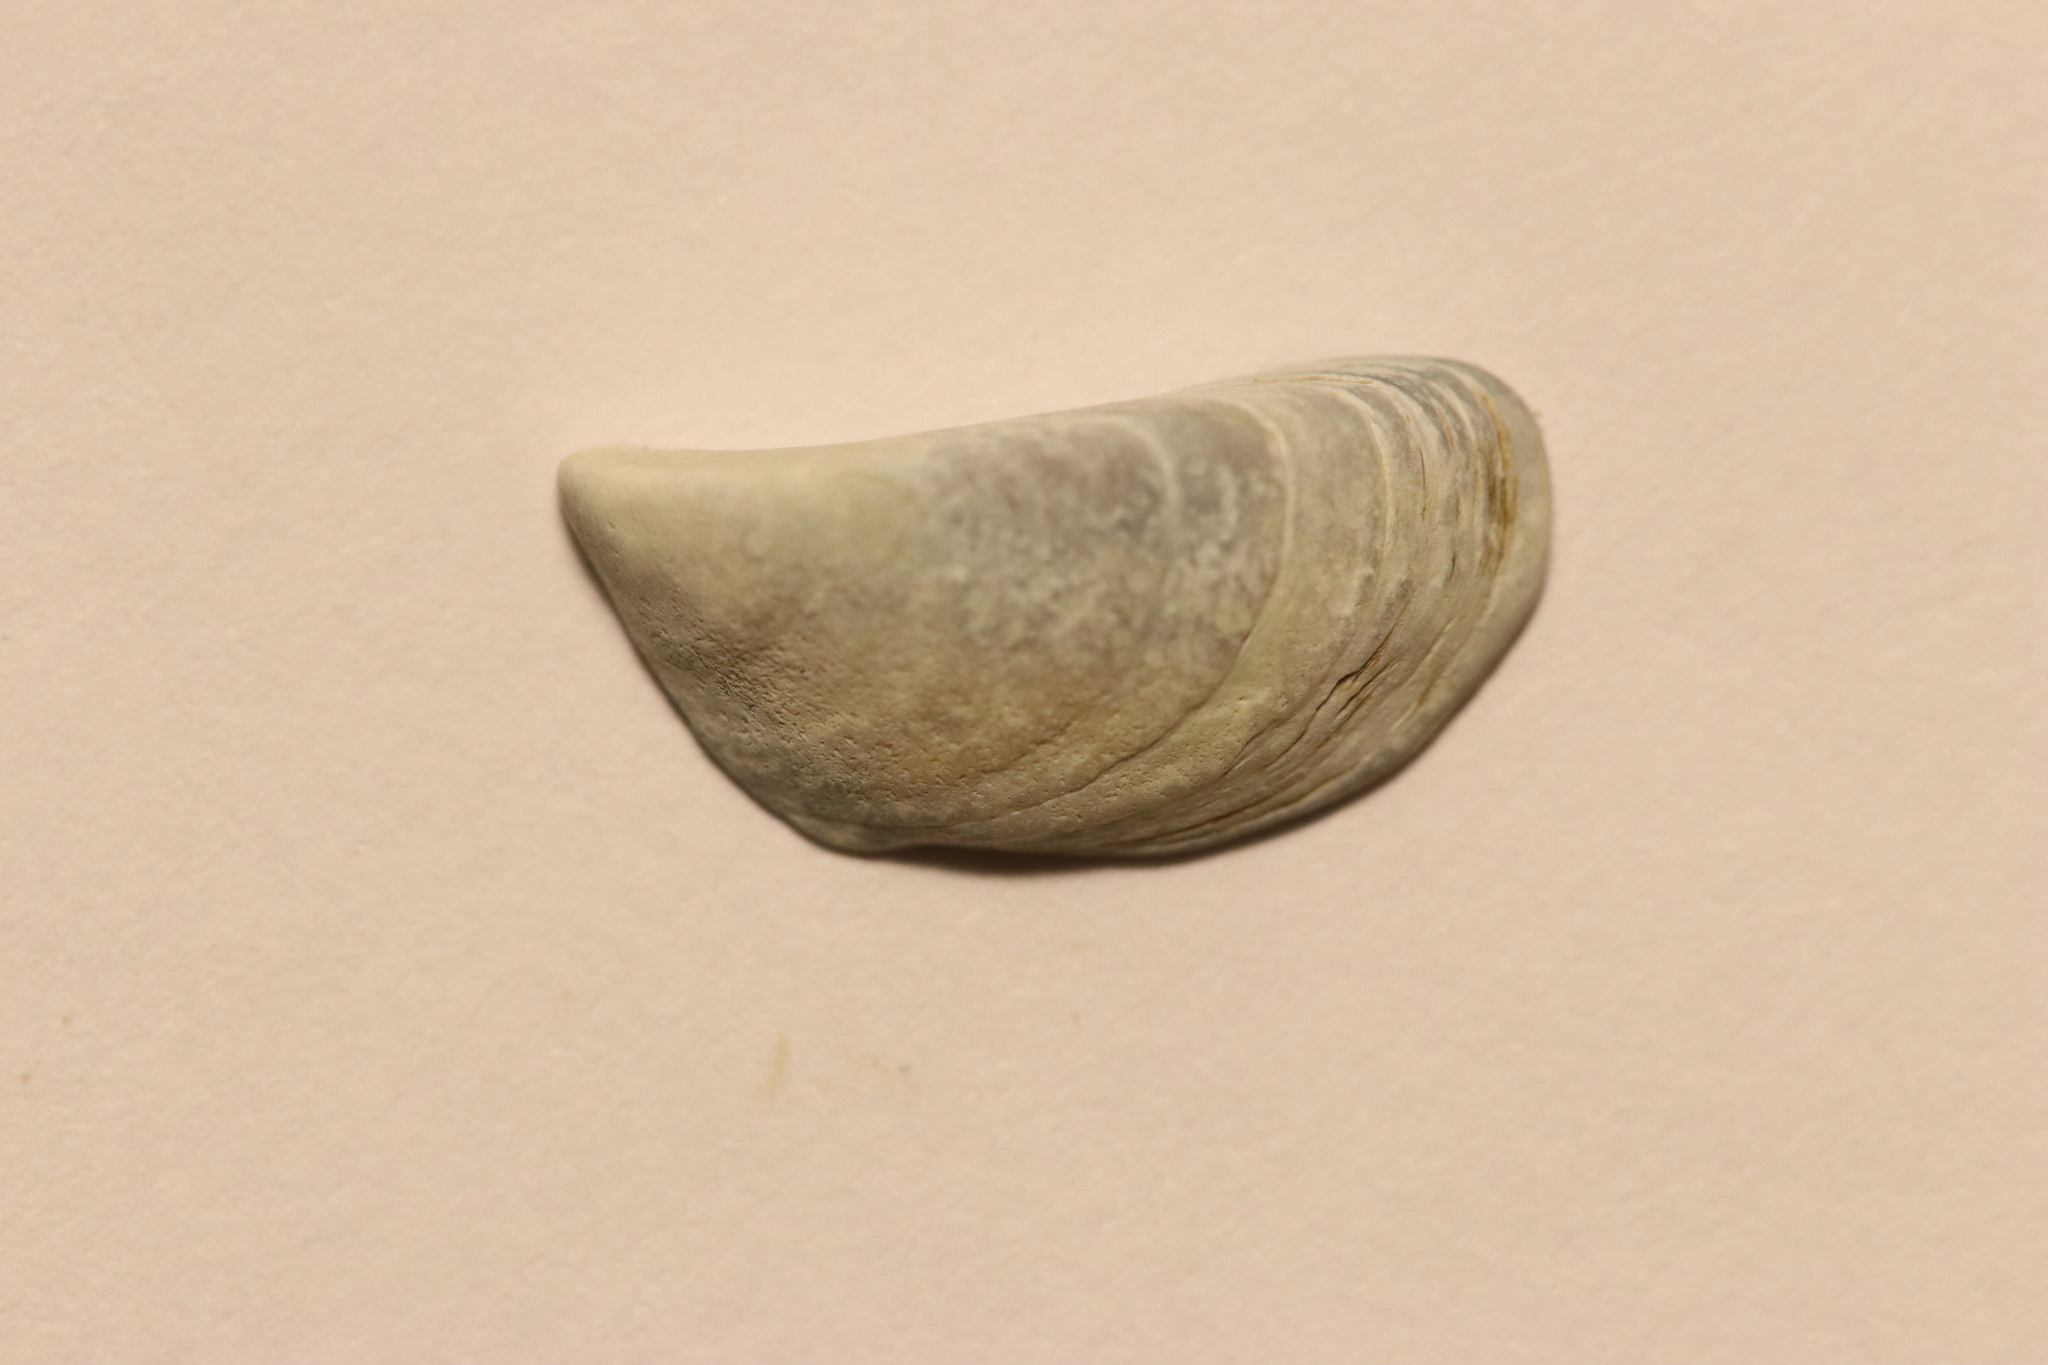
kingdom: Animalia
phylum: Mollusca
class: Bivalvia
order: Myida
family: Dreissenidae
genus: Dreissena
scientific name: Dreissena polymorpha
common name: Zebra mussel
